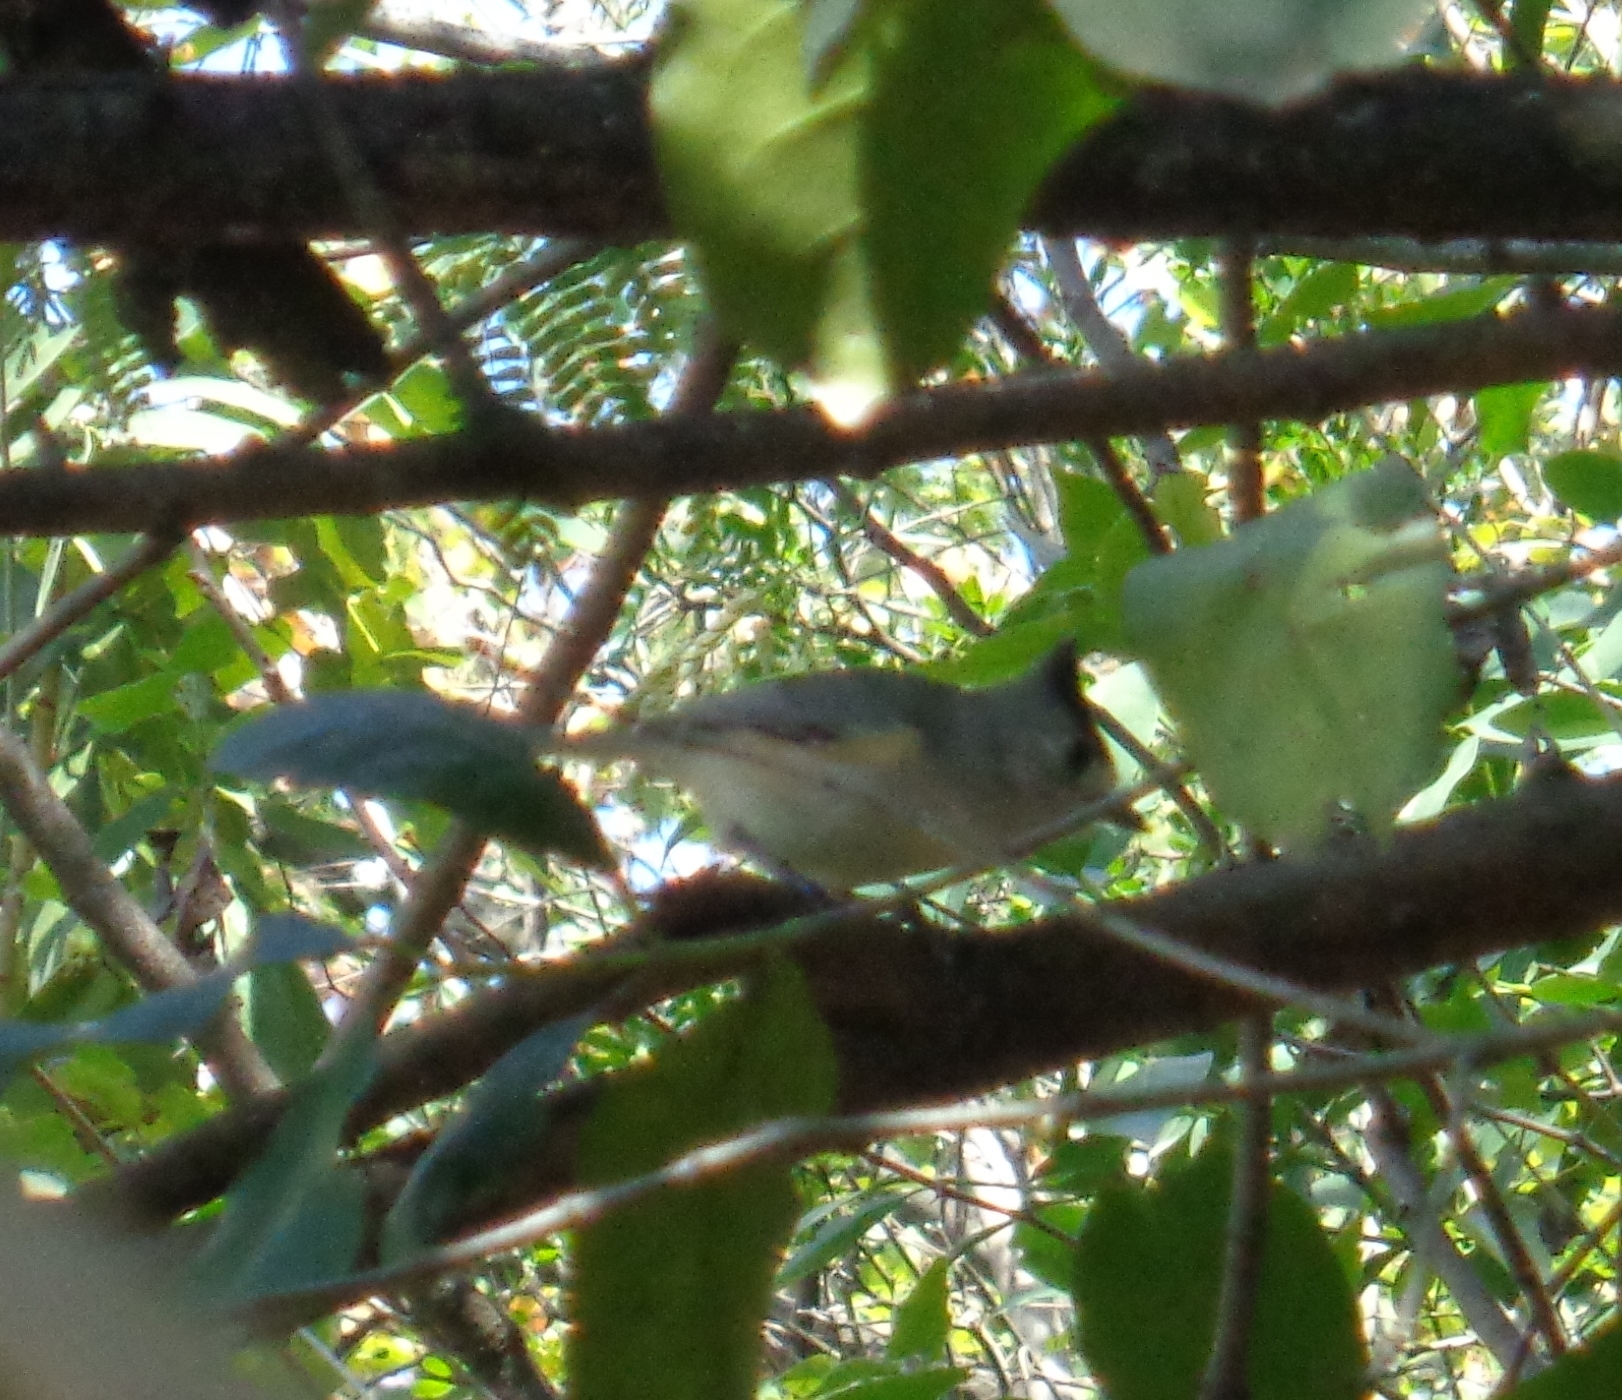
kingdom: Animalia
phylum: Chordata
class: Aves
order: Passeriformes
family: Paridae
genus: Baeolophus
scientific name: Baeolophus atricristatus
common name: Black-crested titmouse
